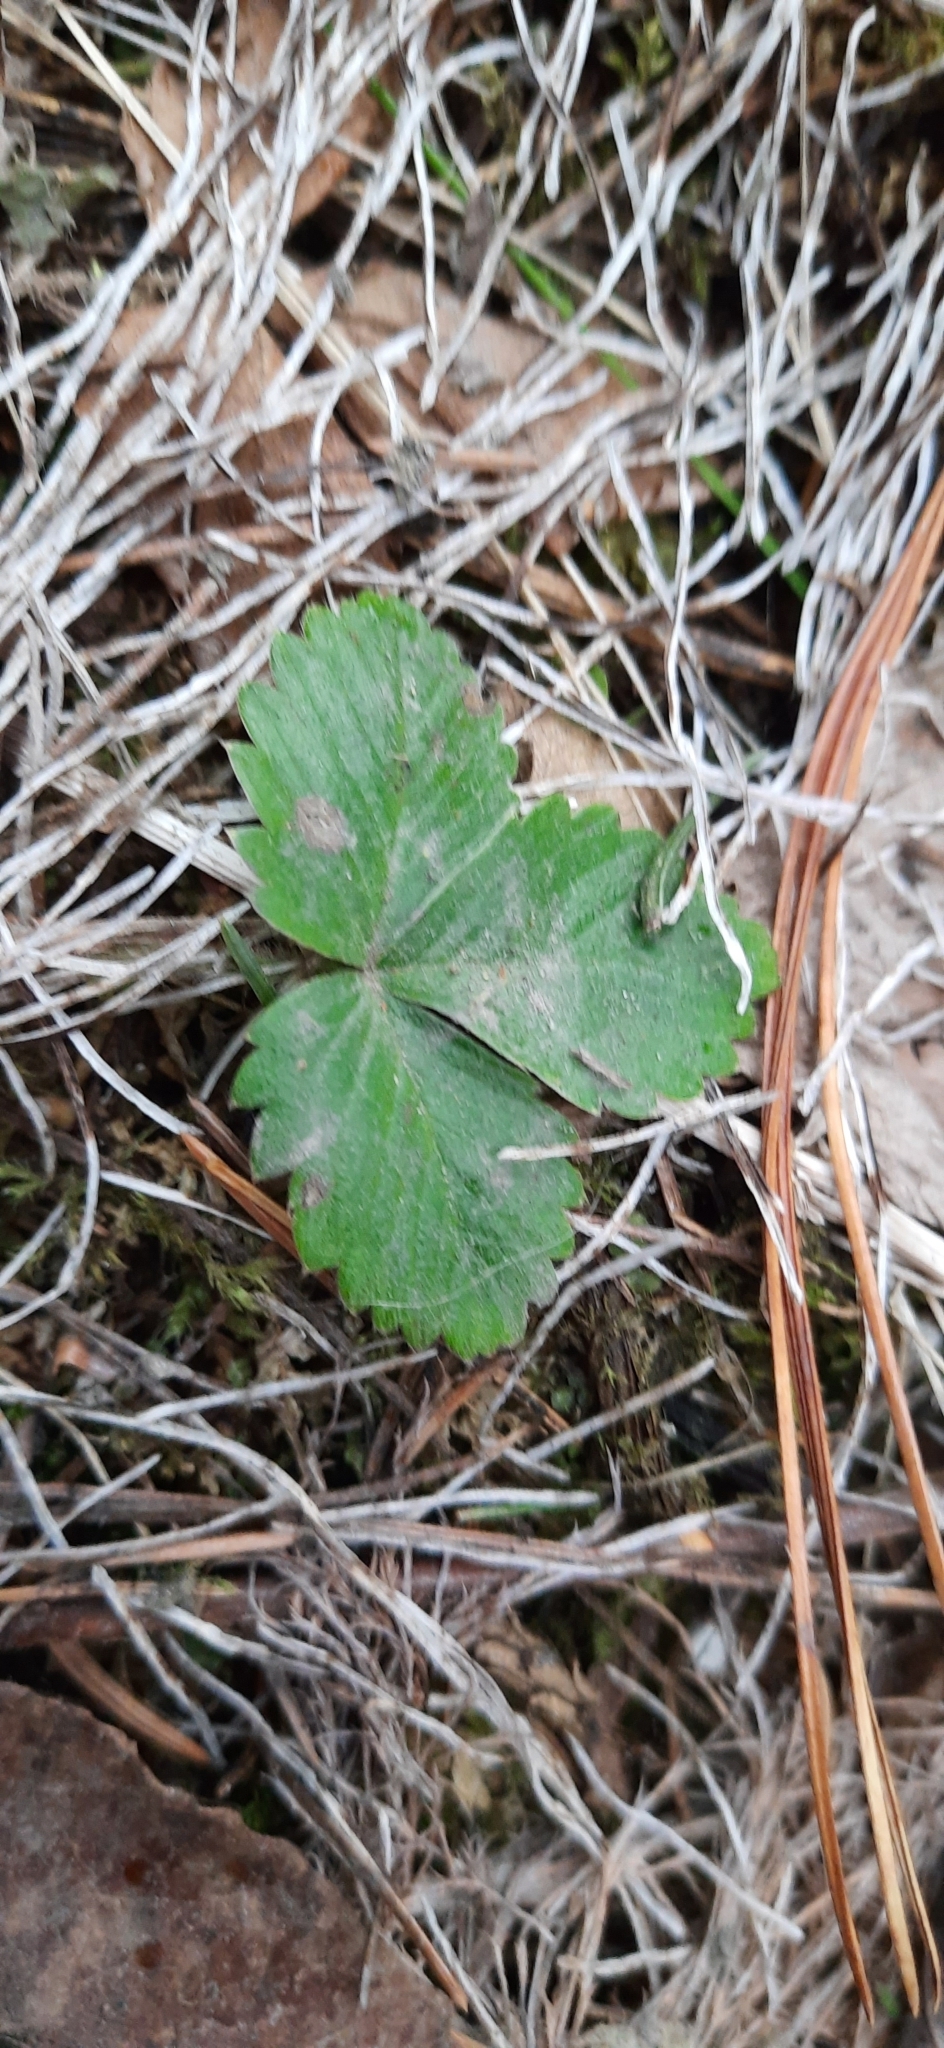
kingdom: Plantae
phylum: Tracheophyta
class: Magnoliopsida
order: Rosales
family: Rosaceae
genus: Fragaria
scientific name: Fragaria vesca
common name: Wild strawberry
